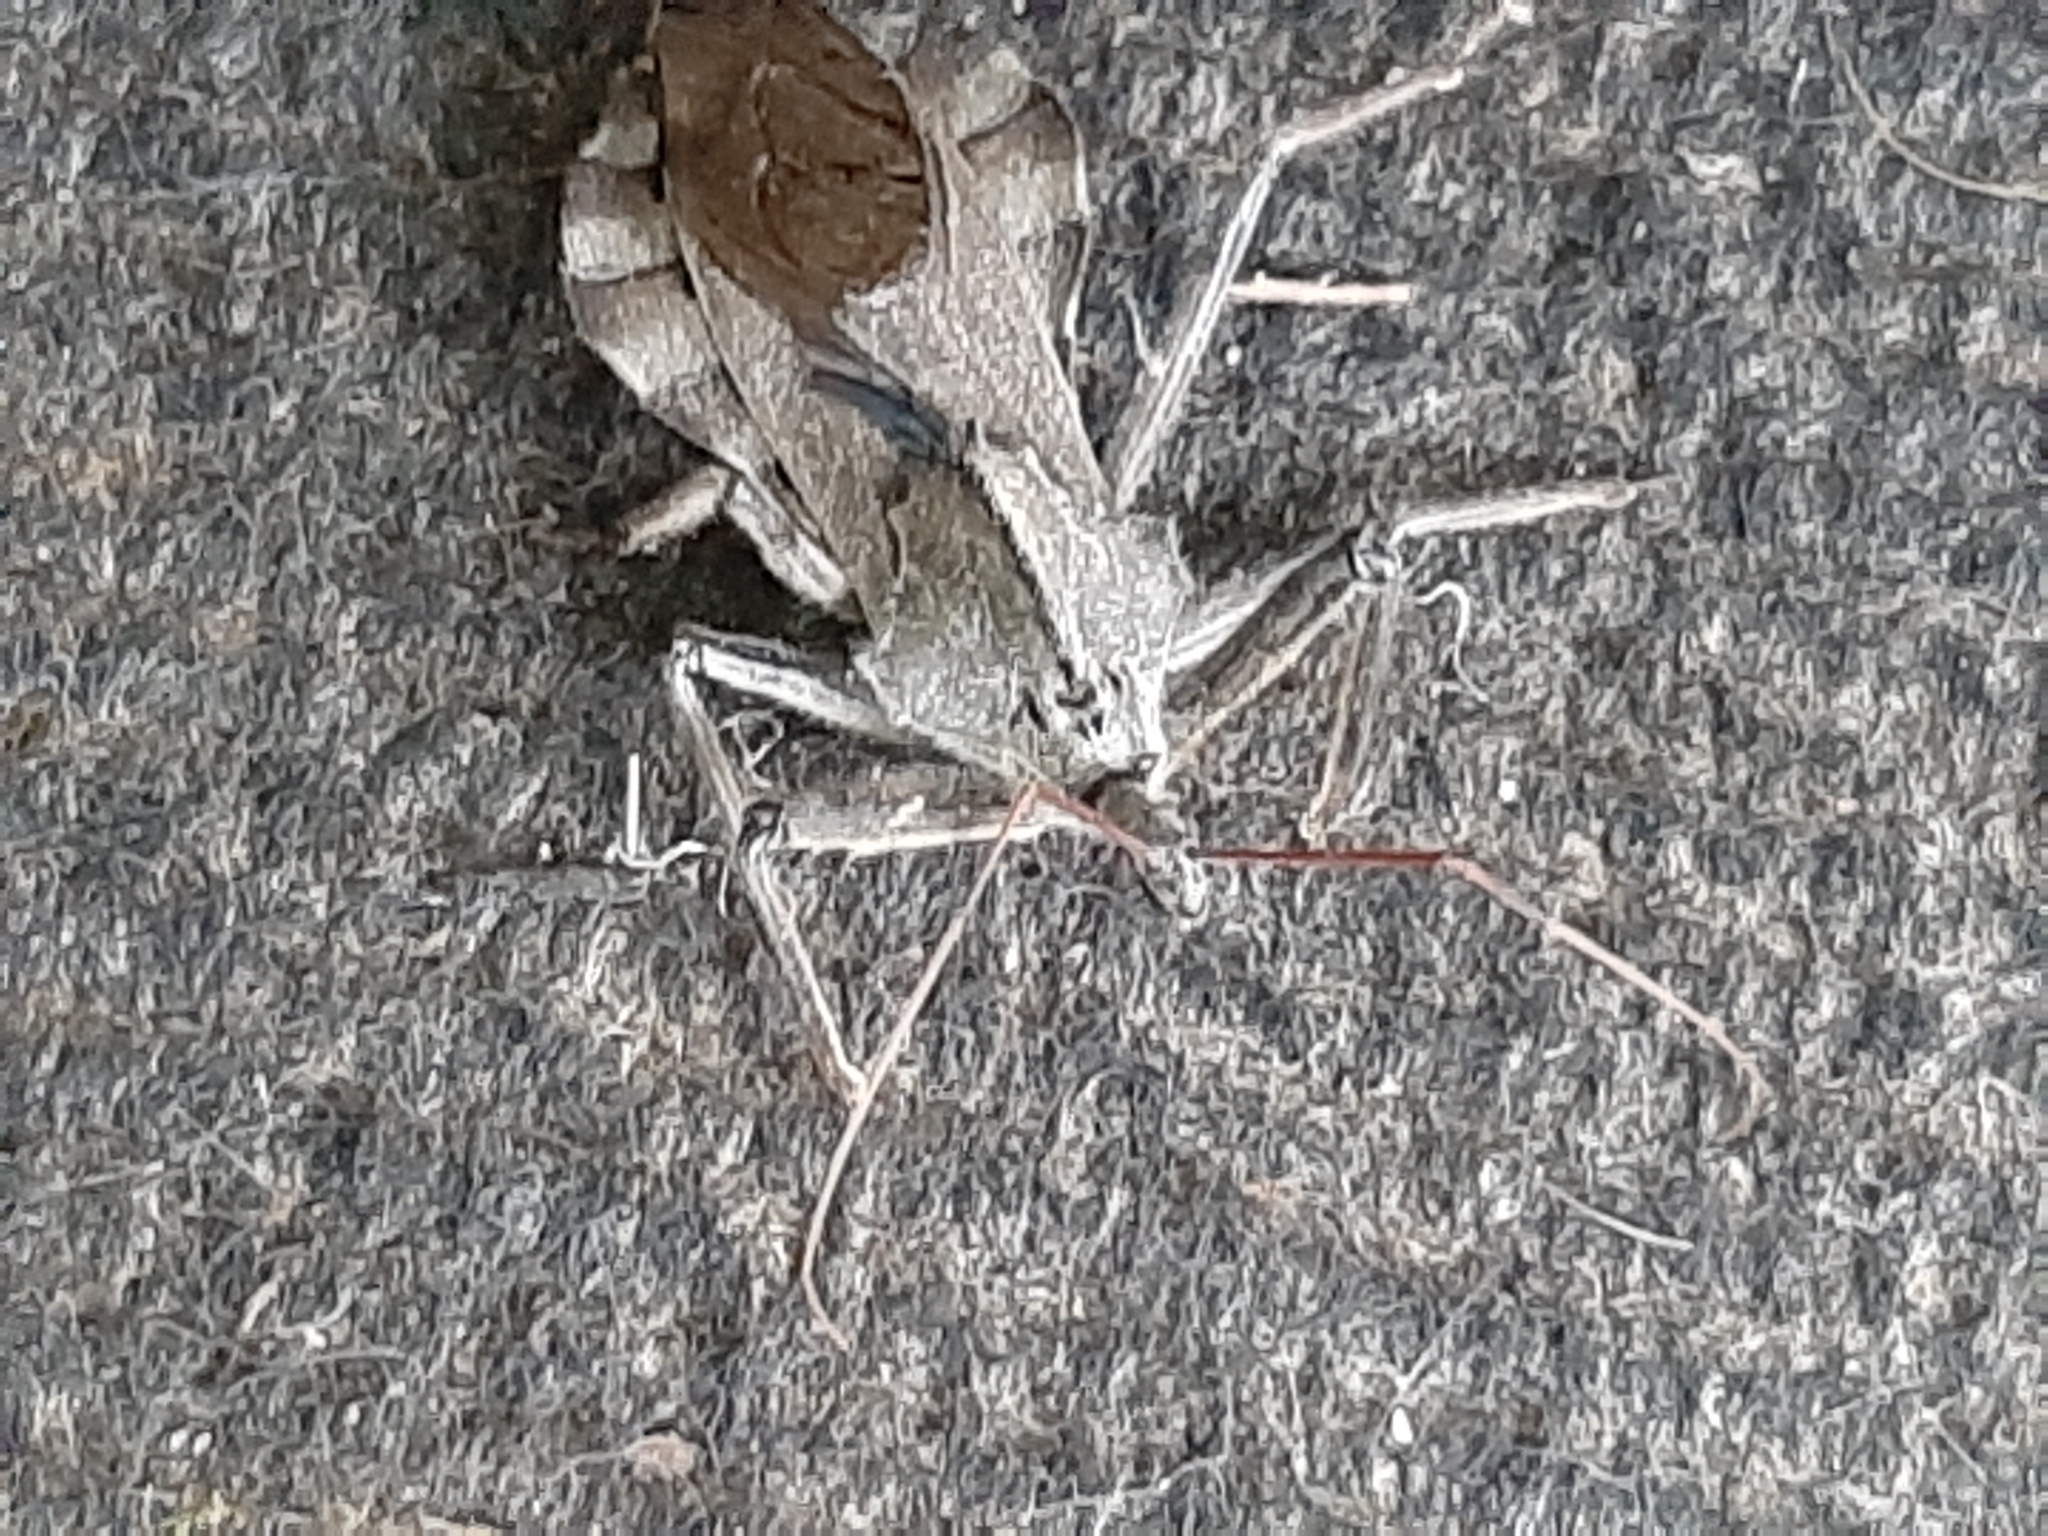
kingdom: Animalia
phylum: Arthropoda
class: Insecta
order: Hemiptera
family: Reduviidae
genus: Arilus
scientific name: Arilus cristatus
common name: North american wheel bug
